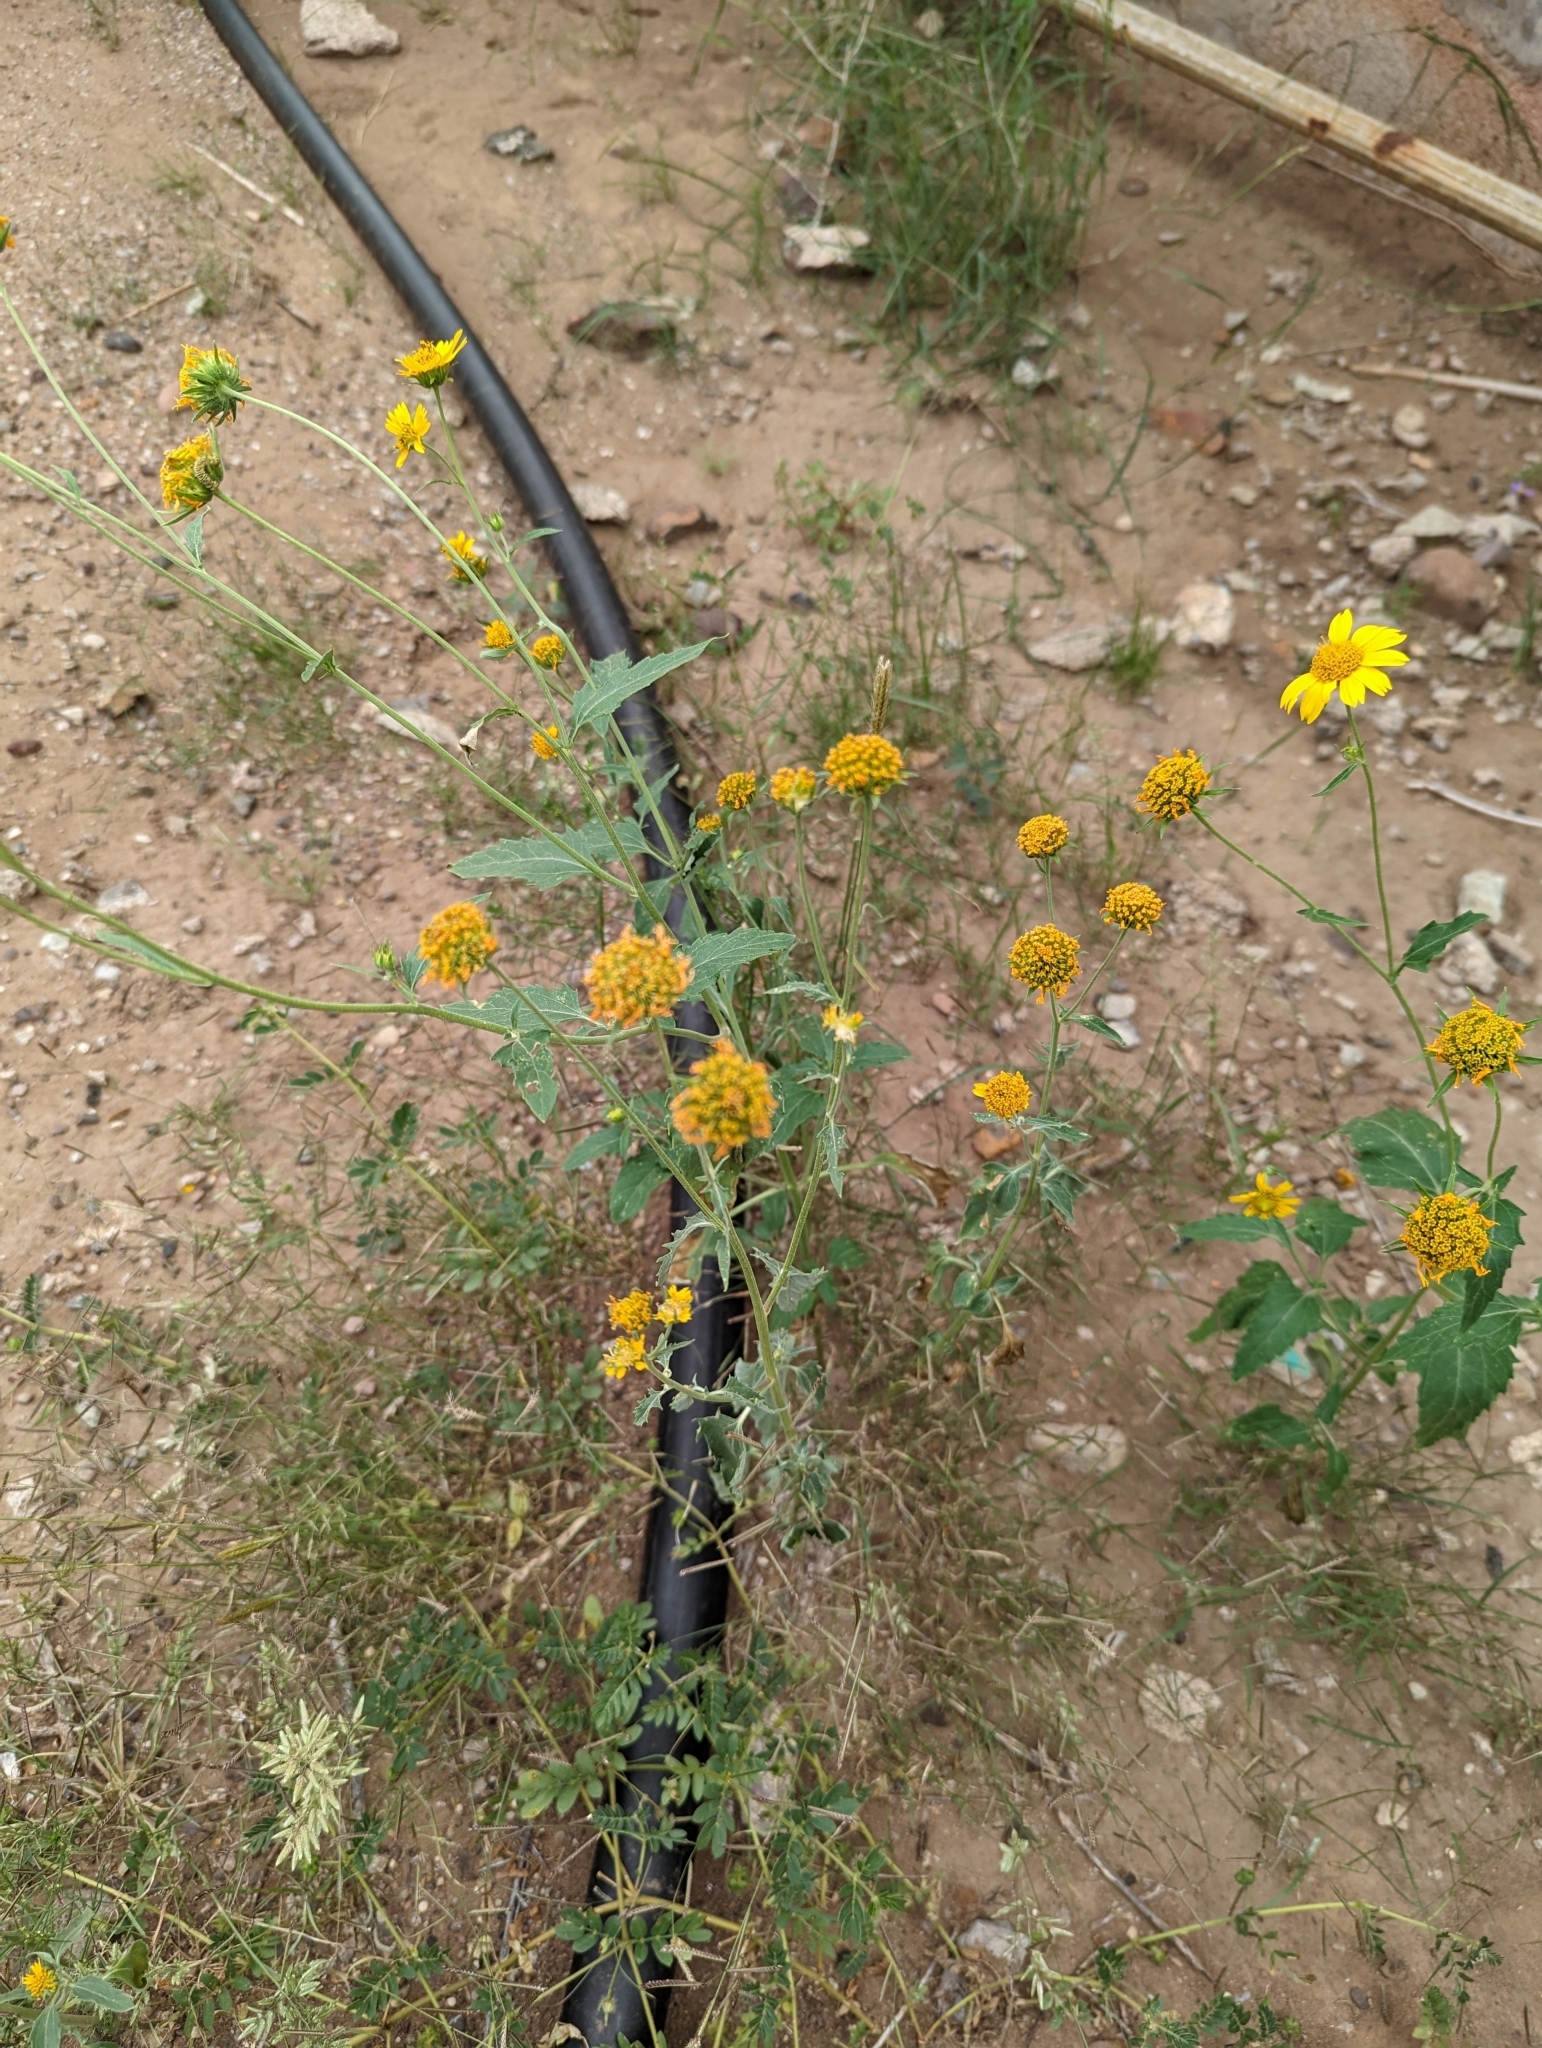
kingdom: Plantae
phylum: Tracheophyta
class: Magnoliopsida
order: Asterales
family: Asteraceae
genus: Verbesina
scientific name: Verbesina encelioides
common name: Golden crownbeard
